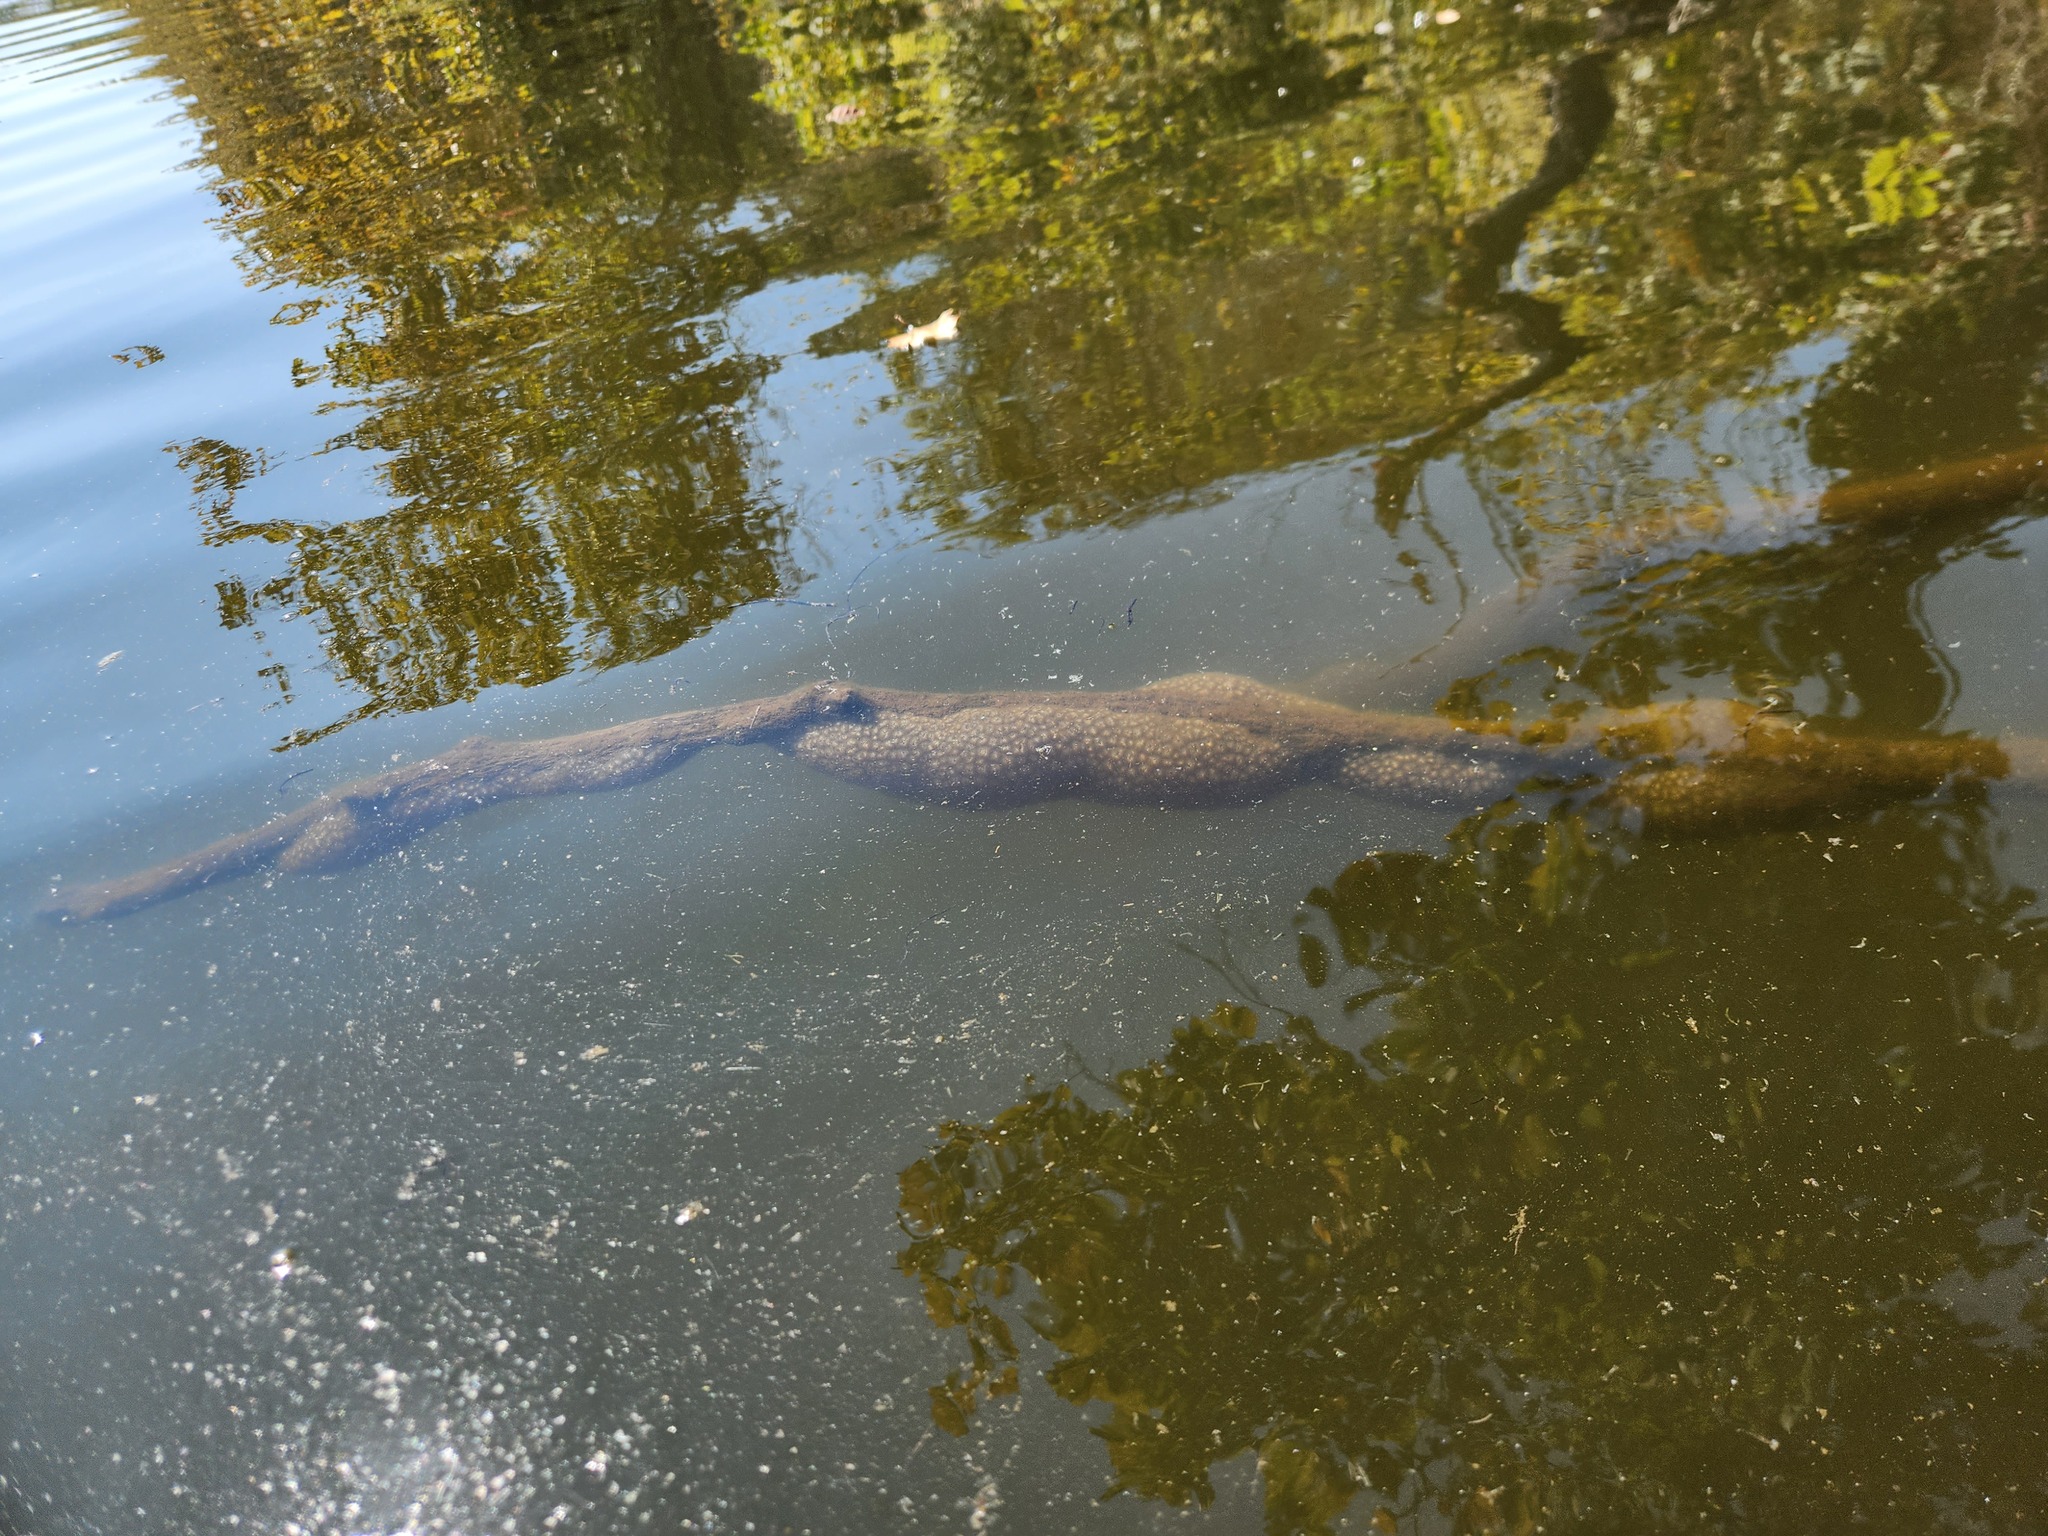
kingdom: Animalia
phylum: Bryozoa
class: Phylactolaemata
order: Plumatellida
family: Pectinatellidae
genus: Pectinatella
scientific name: Pectinatella magnifica
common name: Magnificent bryozoan
